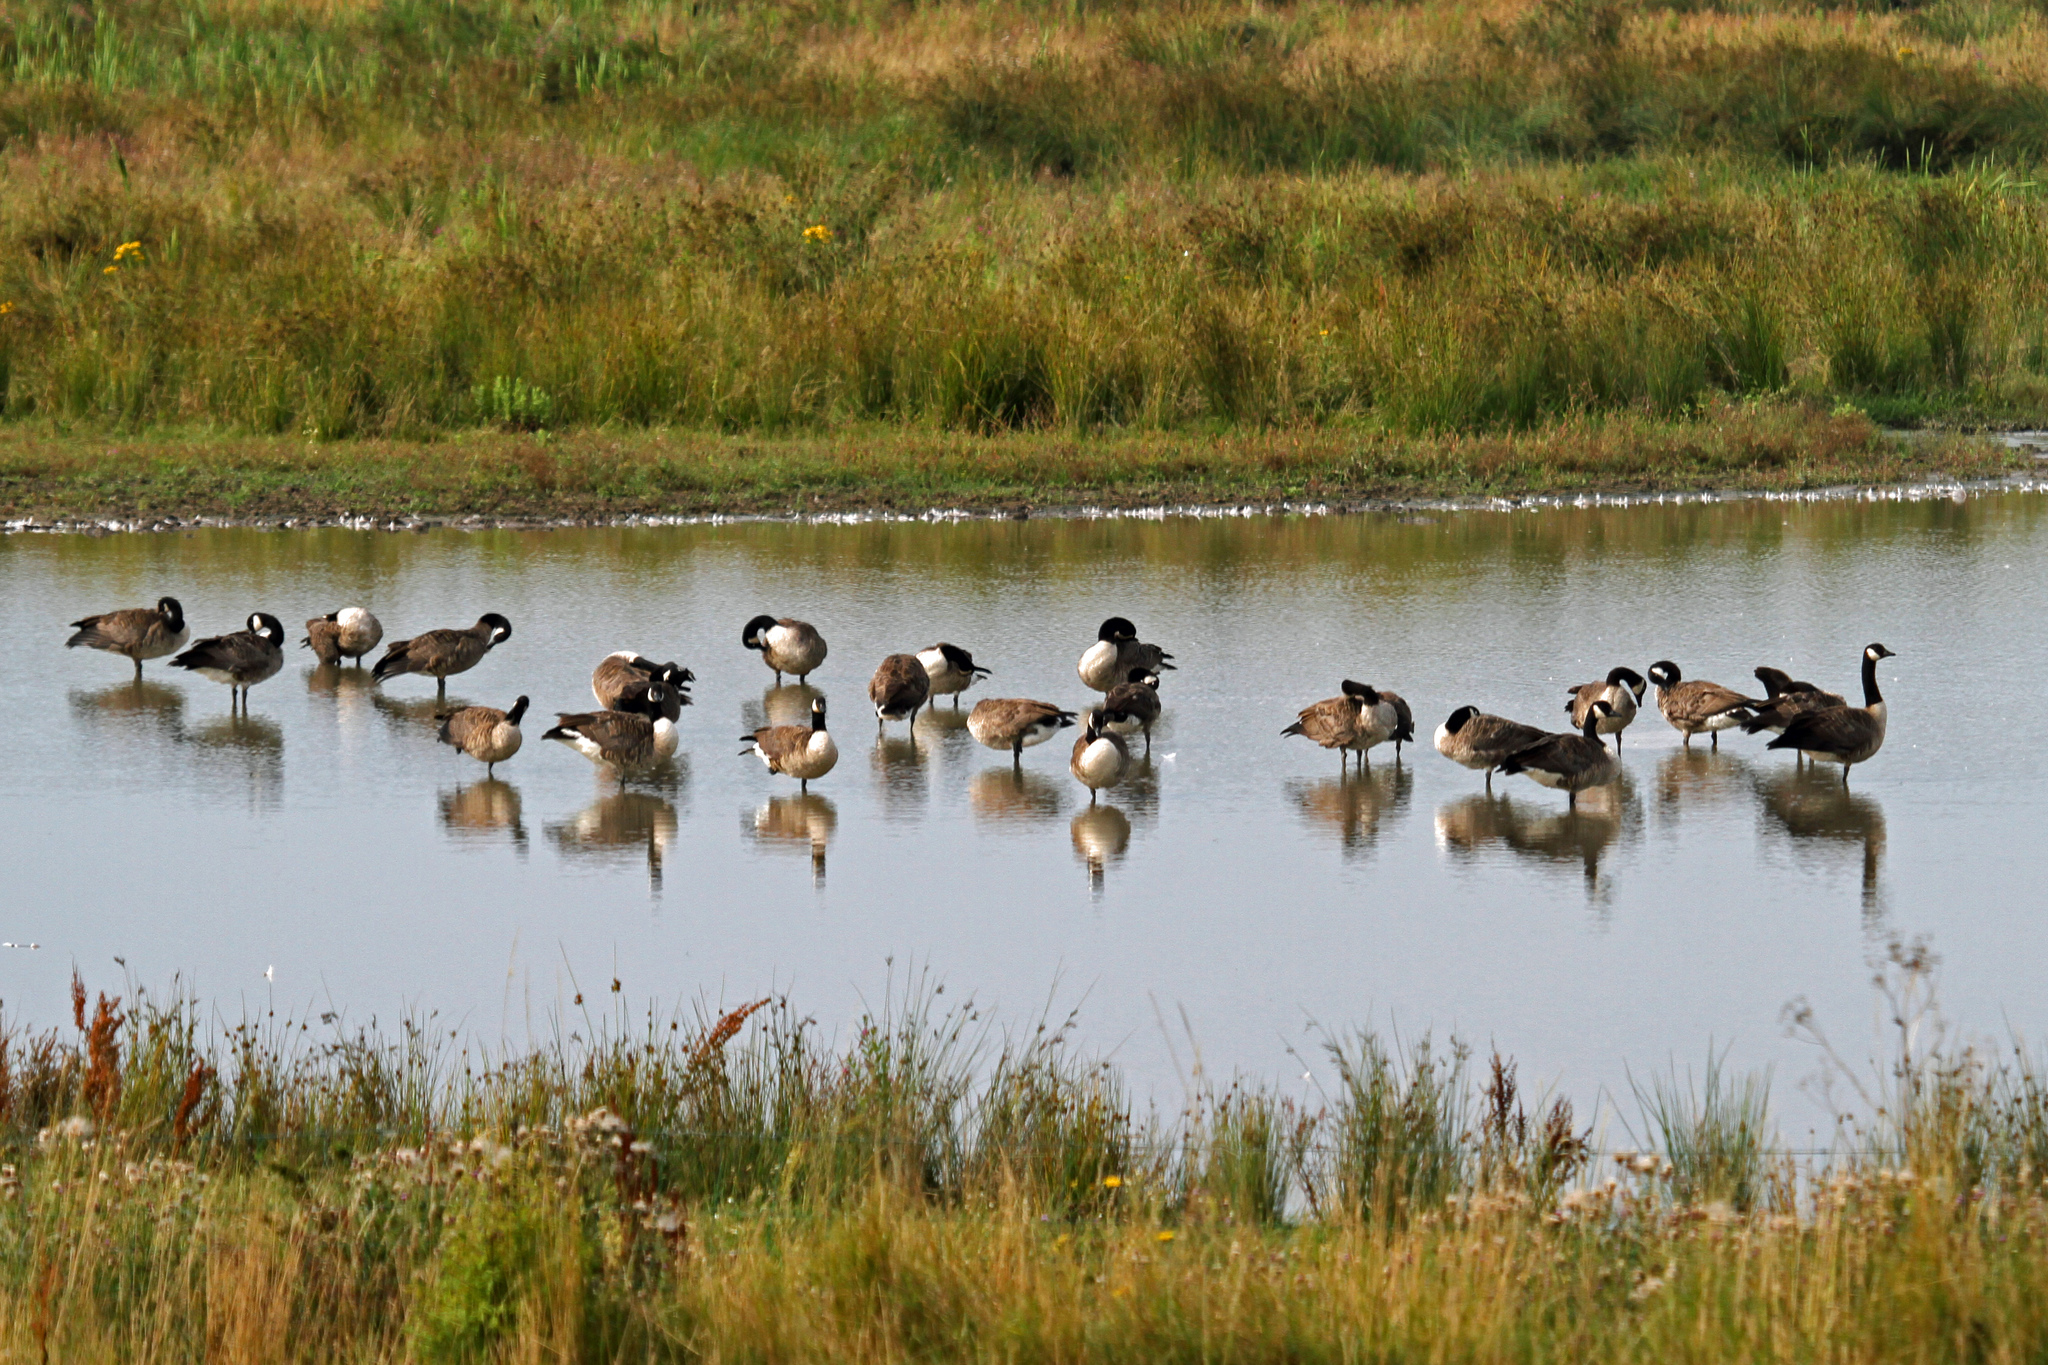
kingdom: Animalia
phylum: Chordata
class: Aves
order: Anseriformes
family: Anatidae
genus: Branta
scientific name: Branta canadensis
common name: Canada goose
